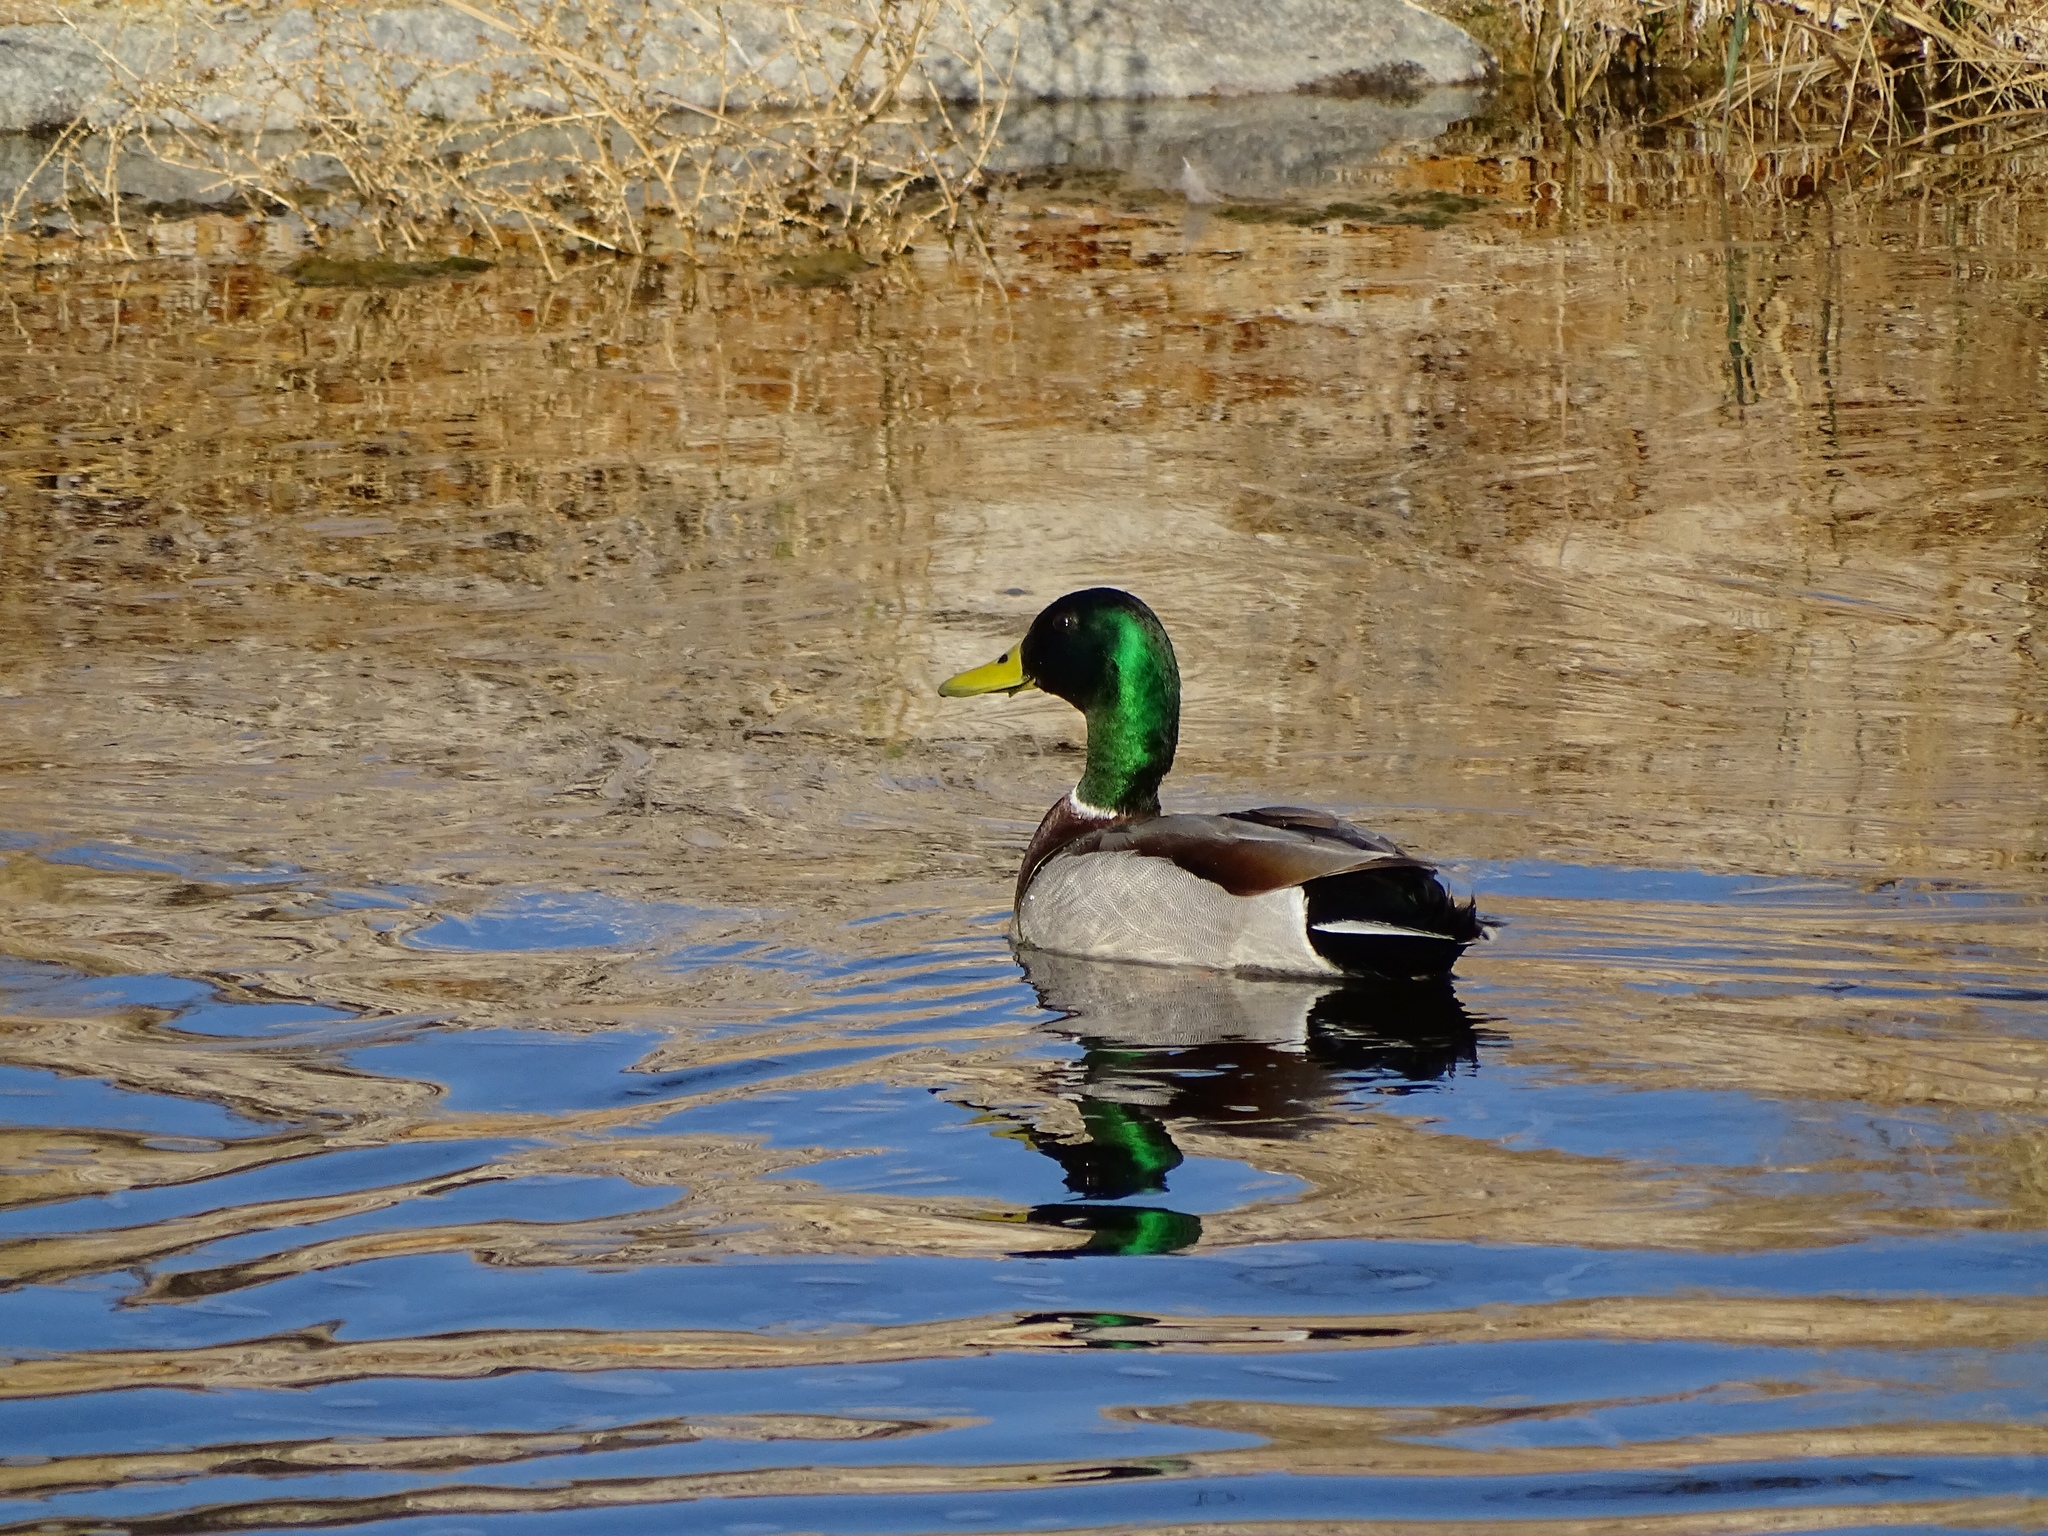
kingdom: Animalia
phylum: Chordata
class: Aves
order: Anseriformes
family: Anatidae
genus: Anas
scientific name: Anas platyrhynchos
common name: Mallard
